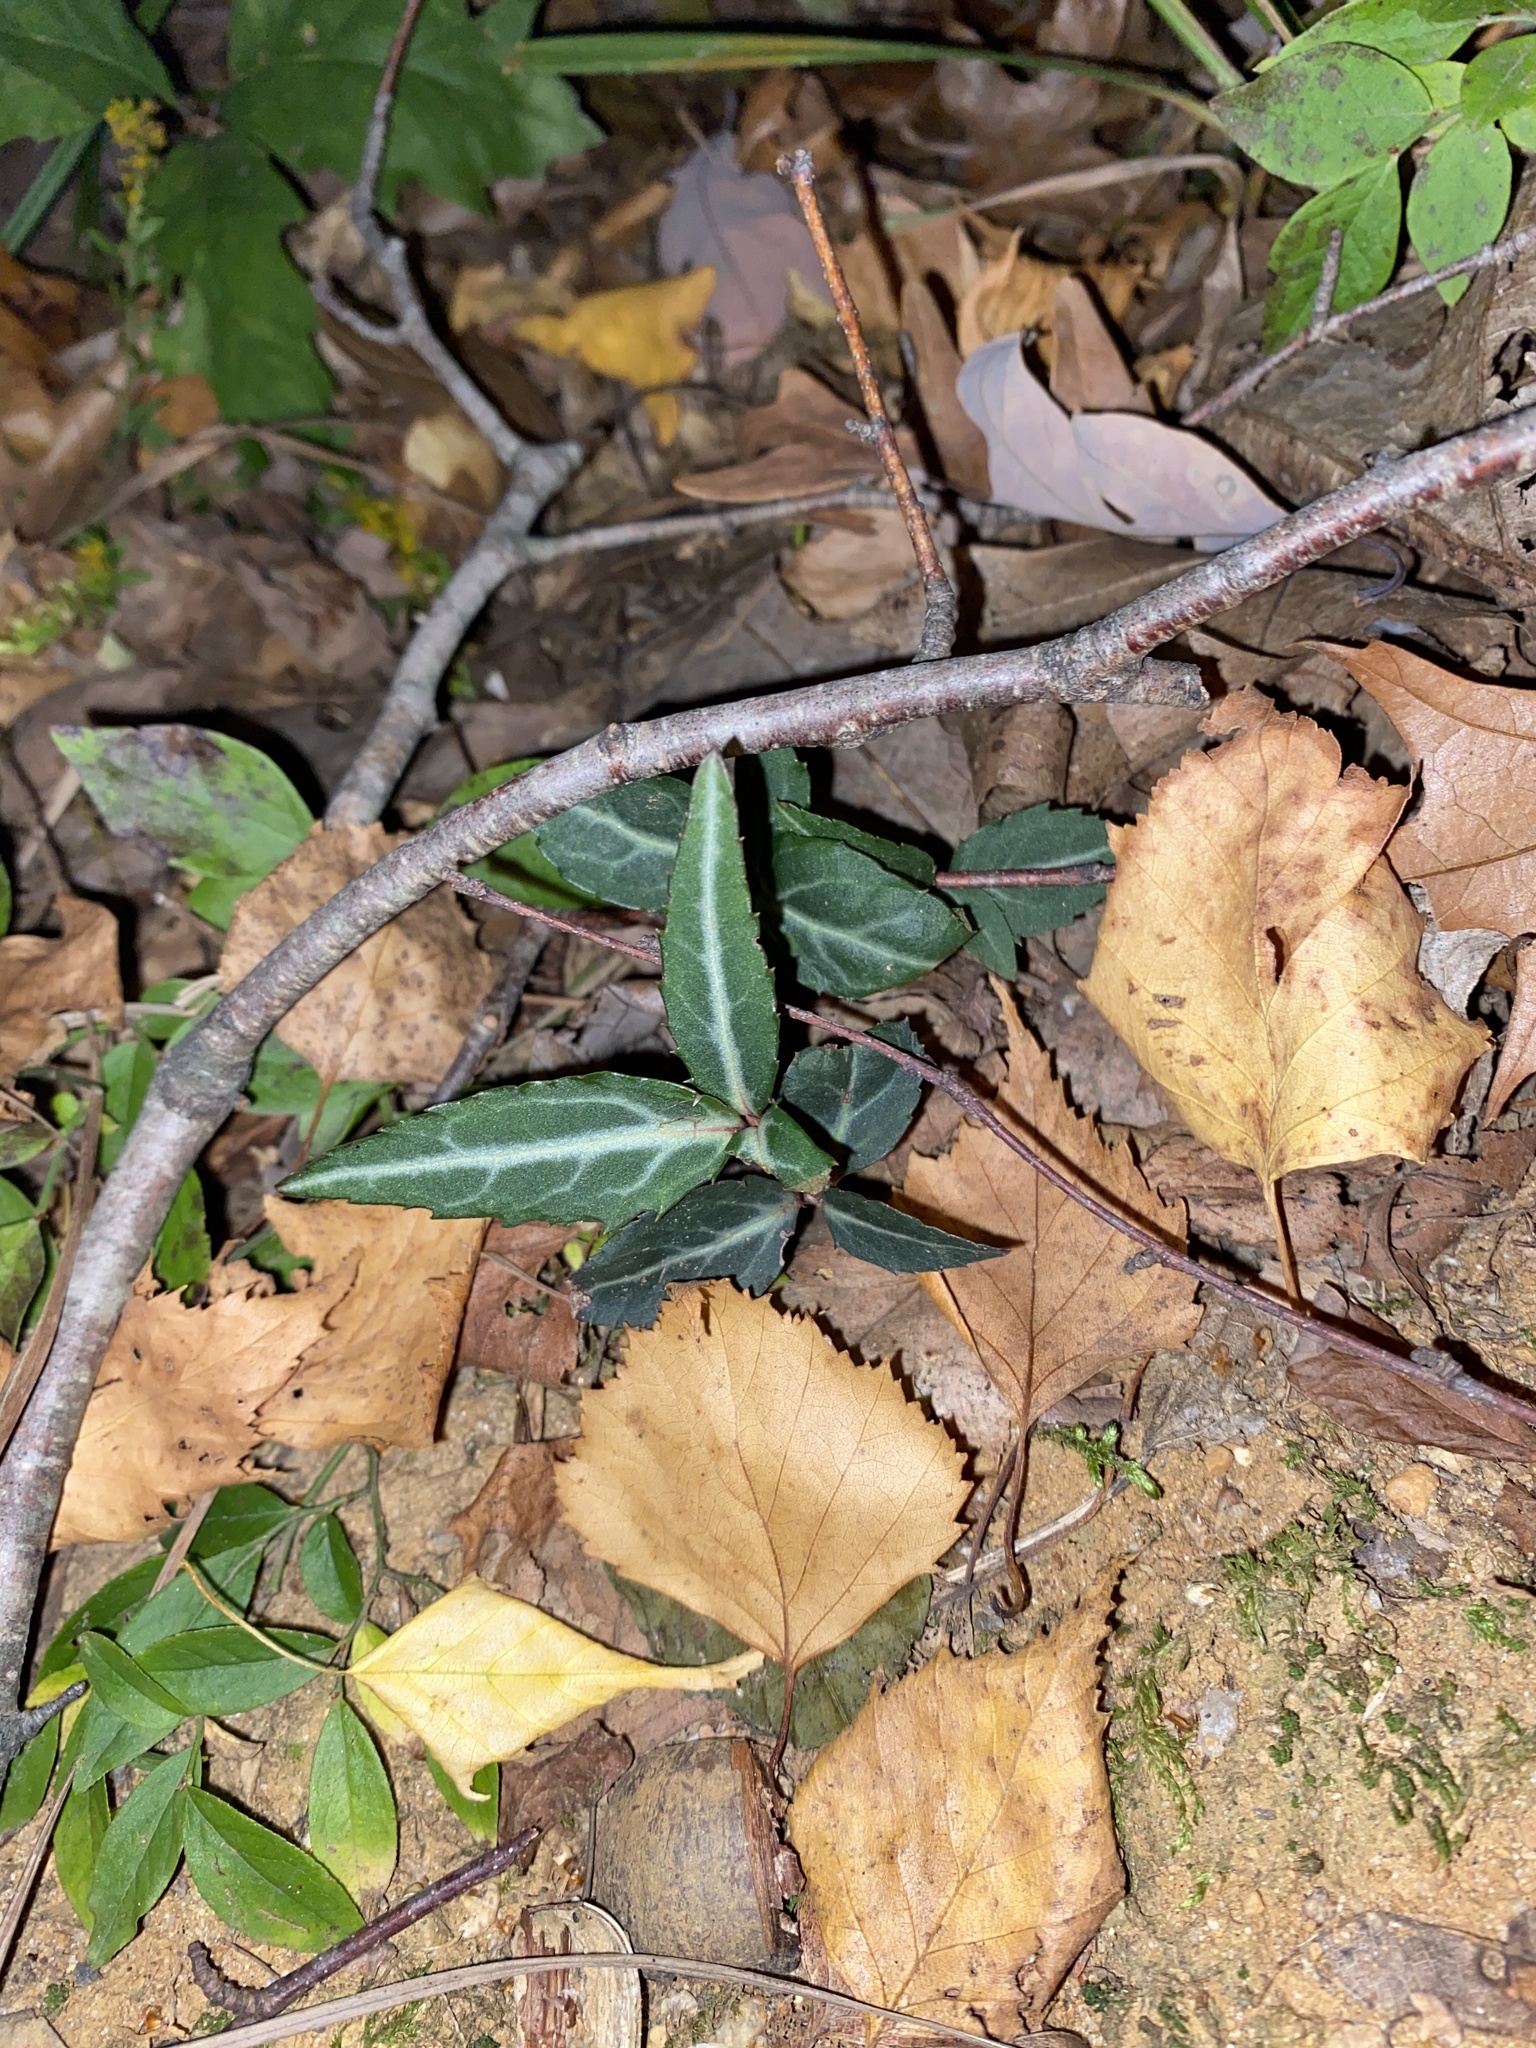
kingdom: Plantae
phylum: Tracheophyta
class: Magnoliopsida
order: Ericales
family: Ericaceae
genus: Chimaphila
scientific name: Chimaphila maculata
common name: Spotted pipsissewa
